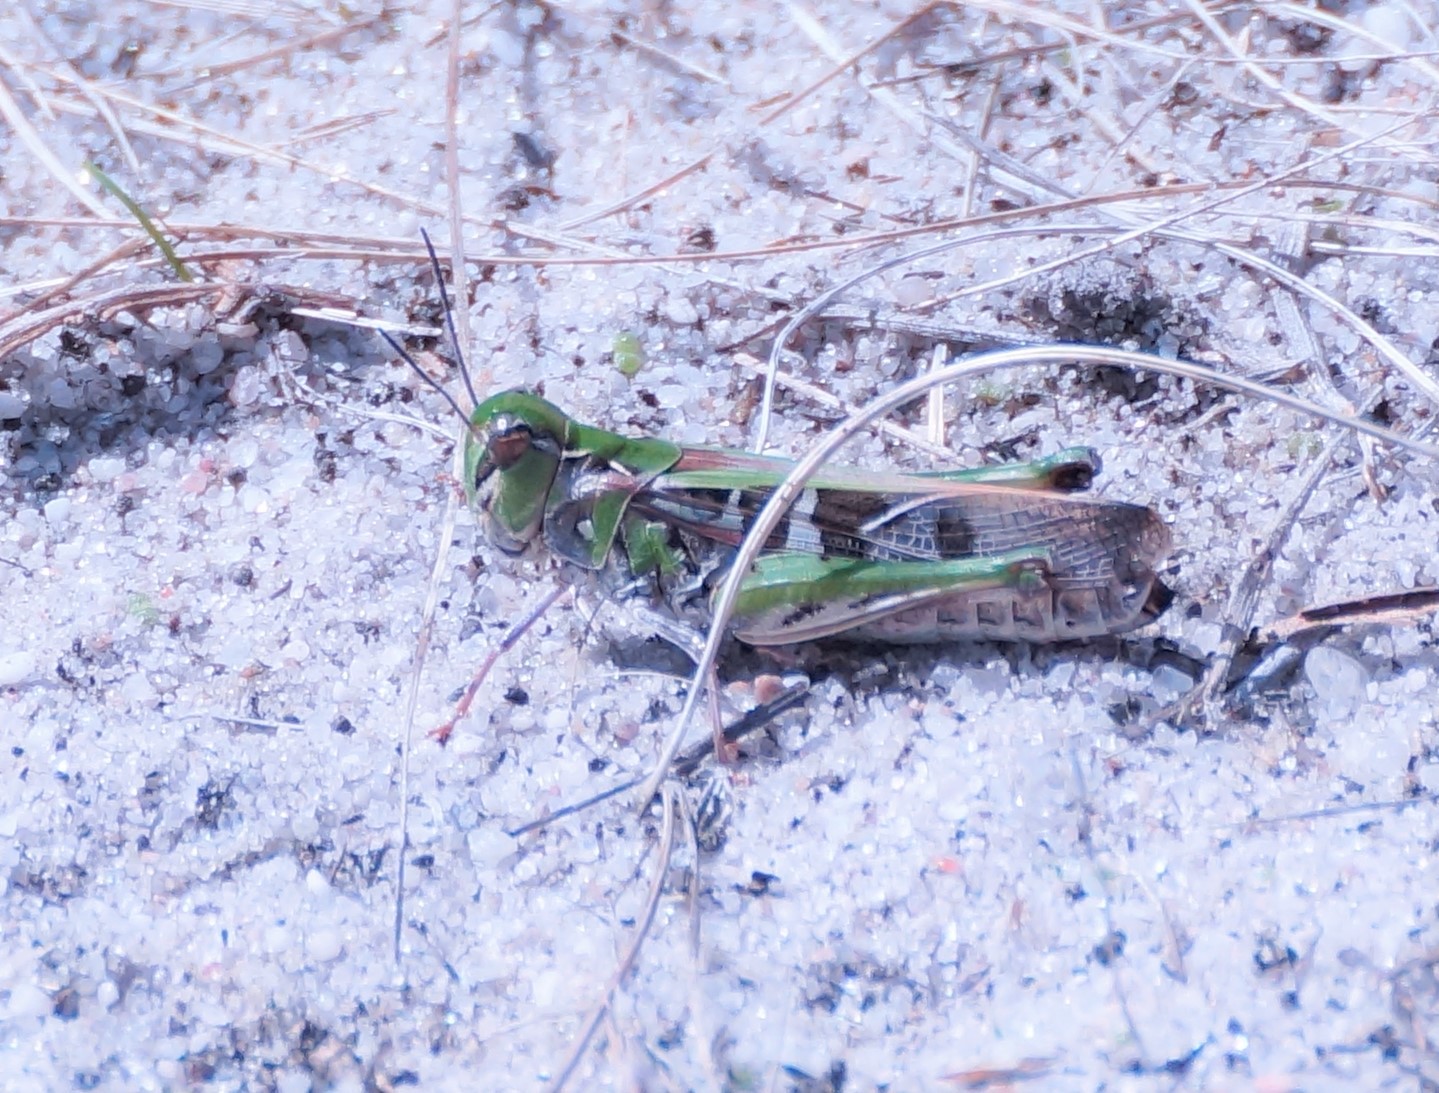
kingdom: Animalia
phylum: Arthropoda
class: Insecta
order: Orthoptera
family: Acrididae
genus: Oedaleus
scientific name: Oedaleus australis
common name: Eastern oedaleus
